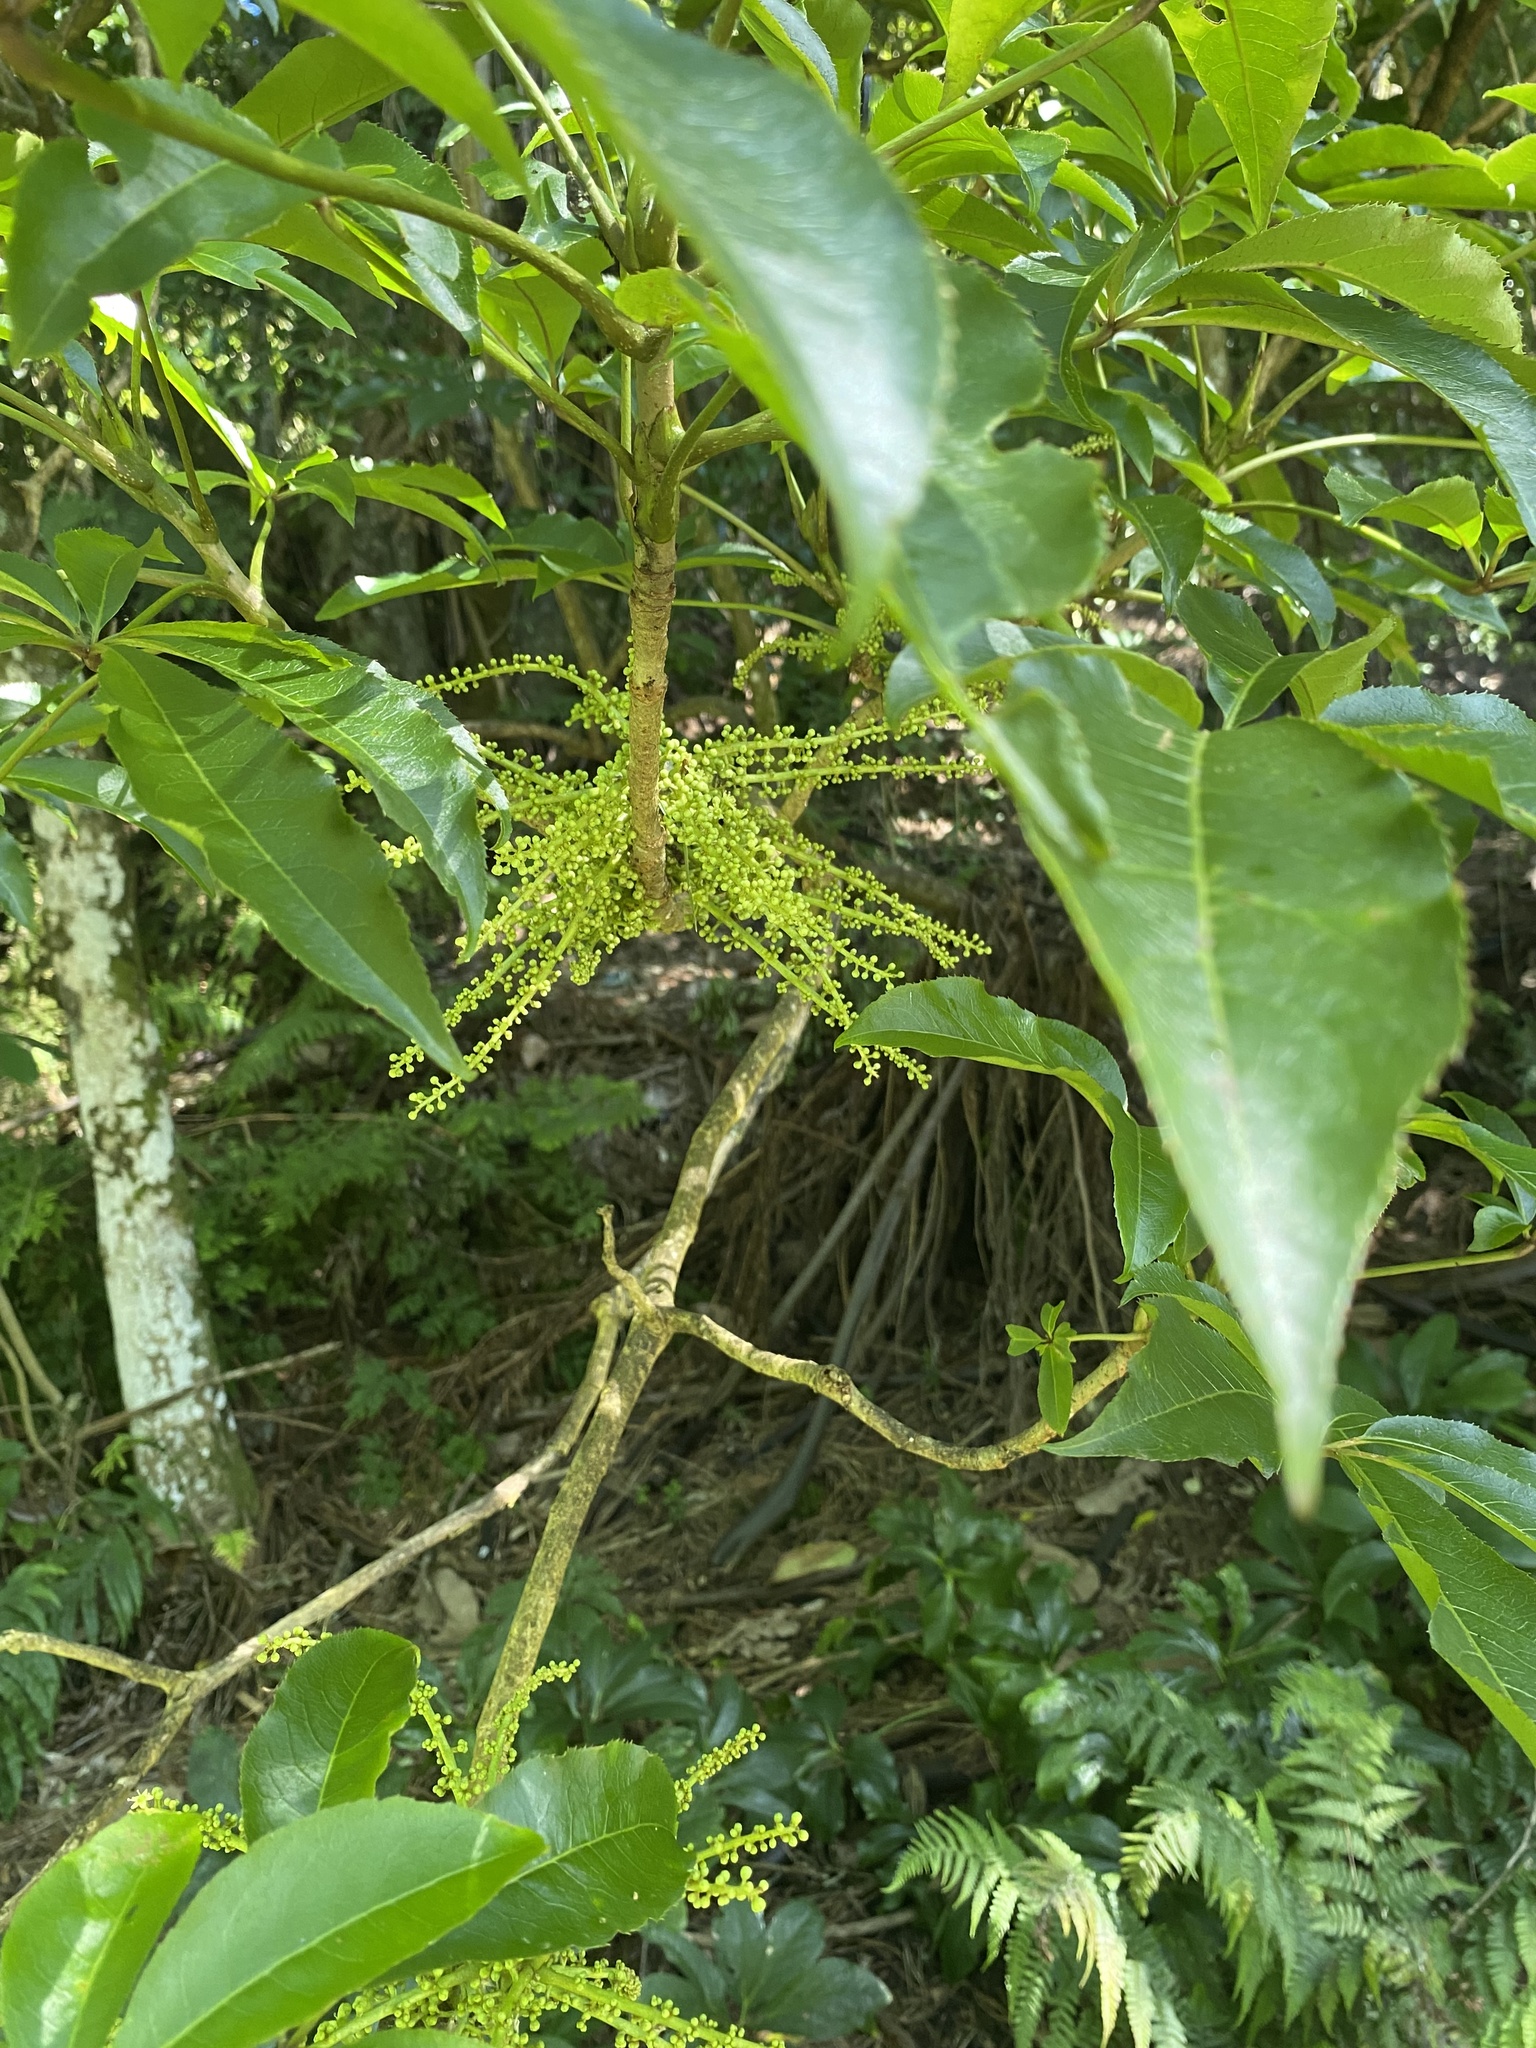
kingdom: Plantae
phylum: Tracheophyta
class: Magnoliopsida
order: Apiales
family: Araliaceae
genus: Schefflera
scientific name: Schefflera digitata
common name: Pate
